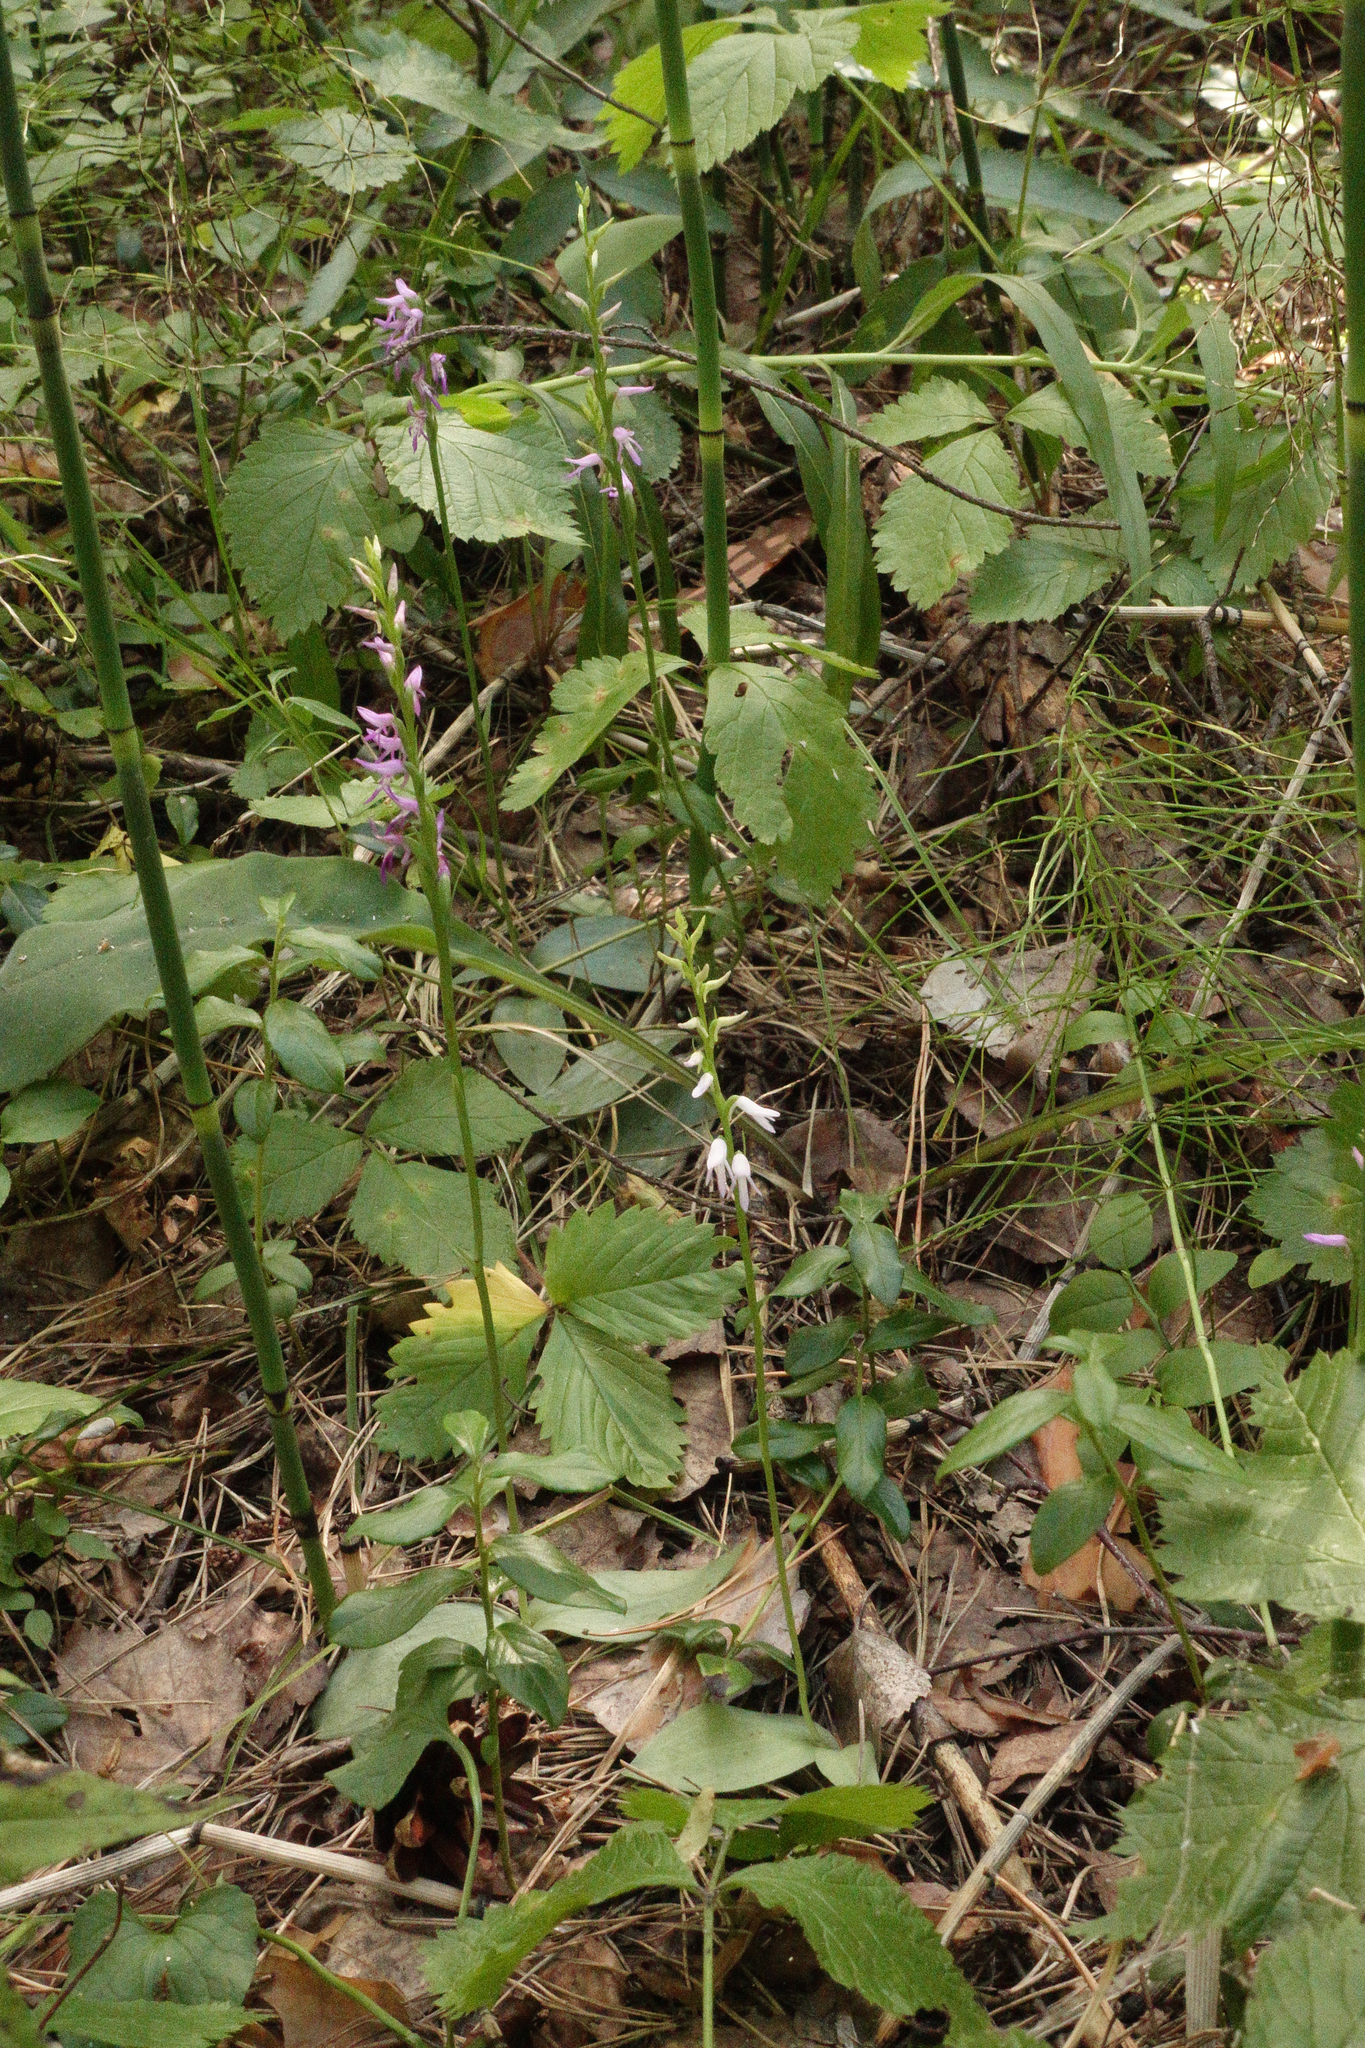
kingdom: Plantae
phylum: Tracheophyta
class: Liliopsida
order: Asparagales
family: Orchidaceae
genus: Hemipilia
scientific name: Hemipilia cucullata
